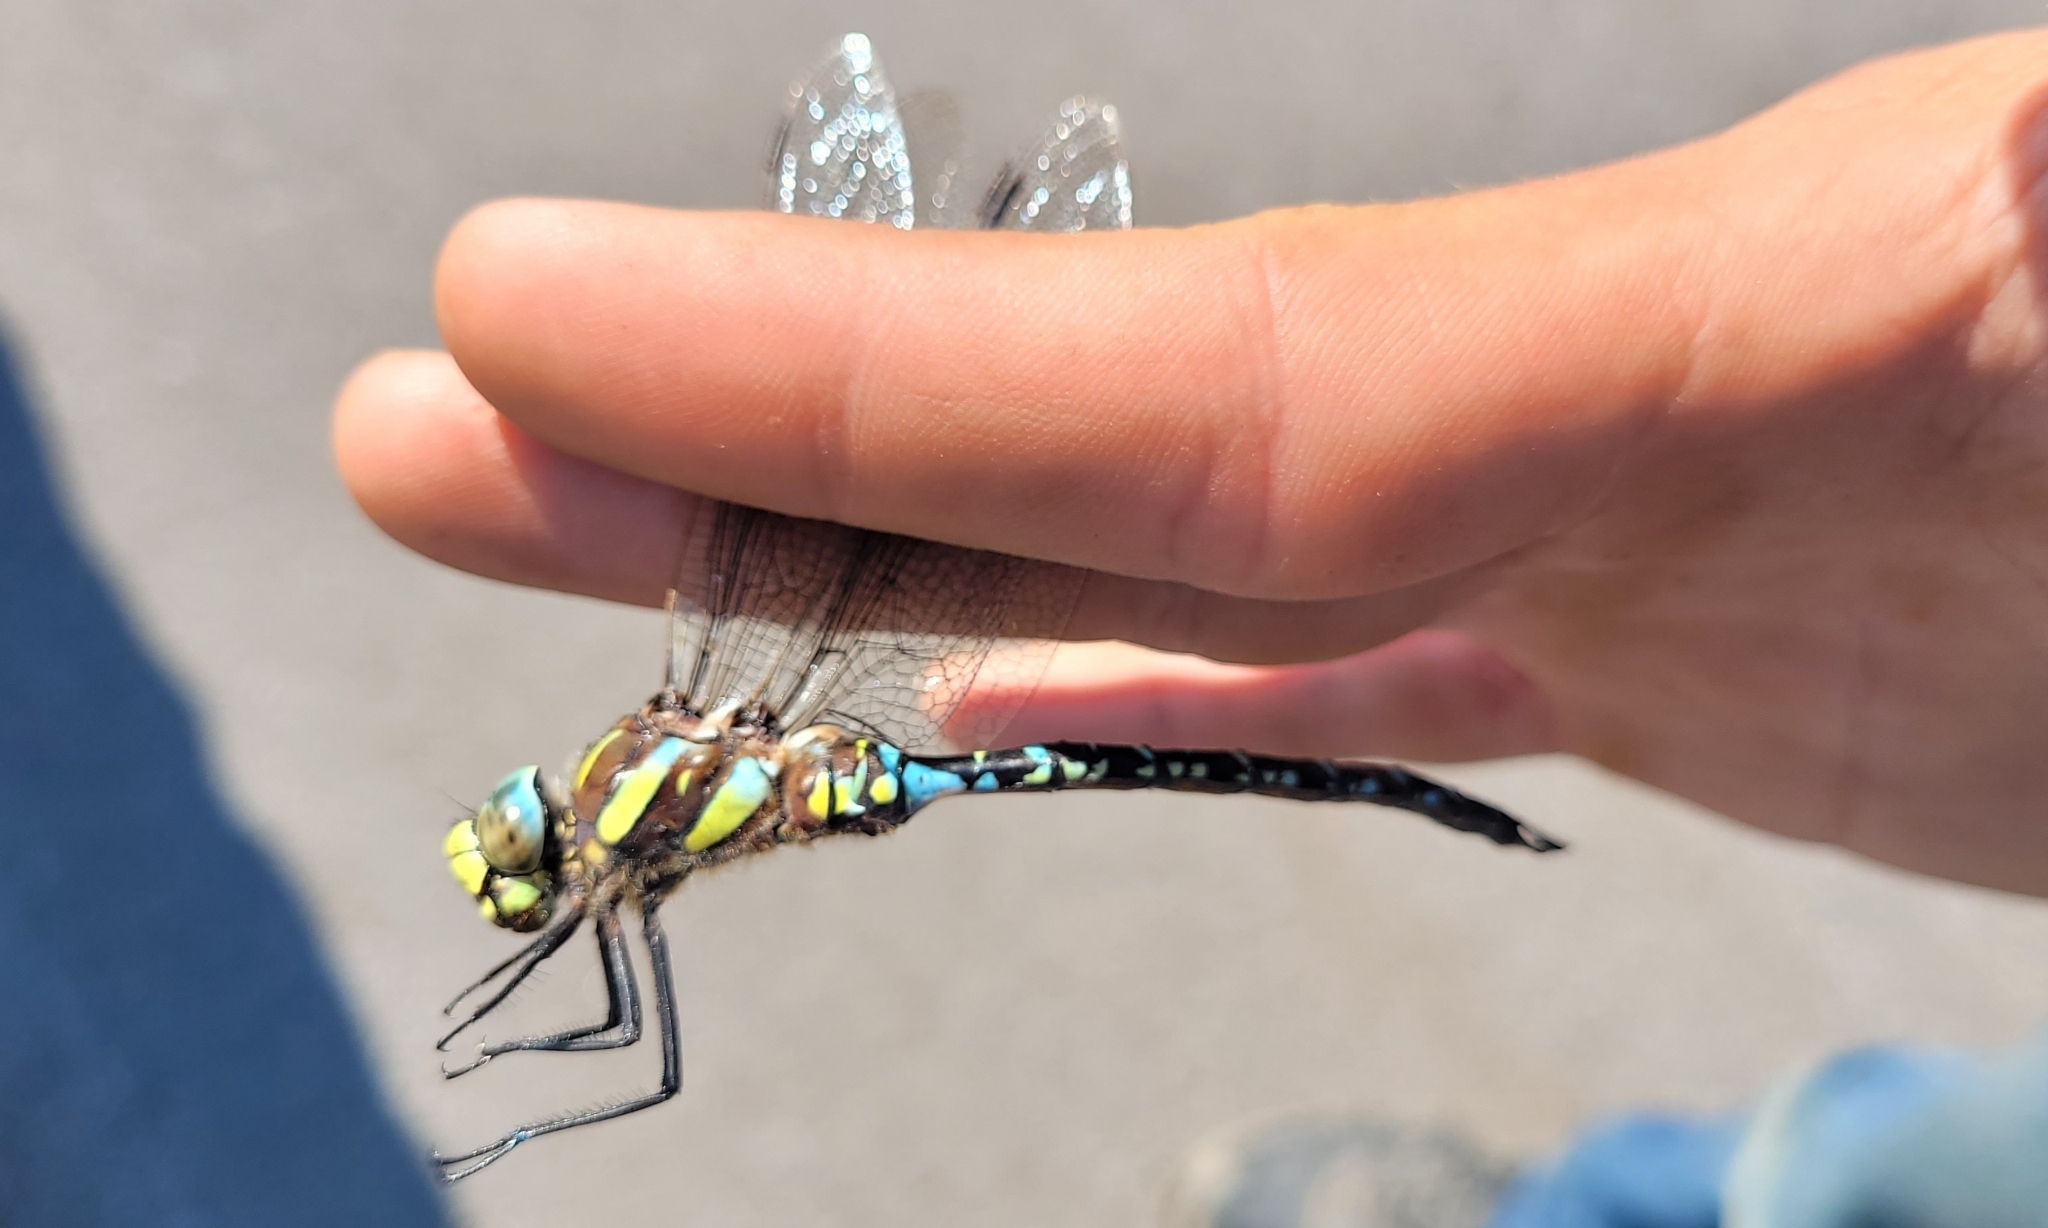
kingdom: Animalia
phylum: Arthropoda
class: Insecta
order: Odonata
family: Aeshnidae
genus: Aeshna
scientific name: Aeshna juncea
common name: Moorland hawker
